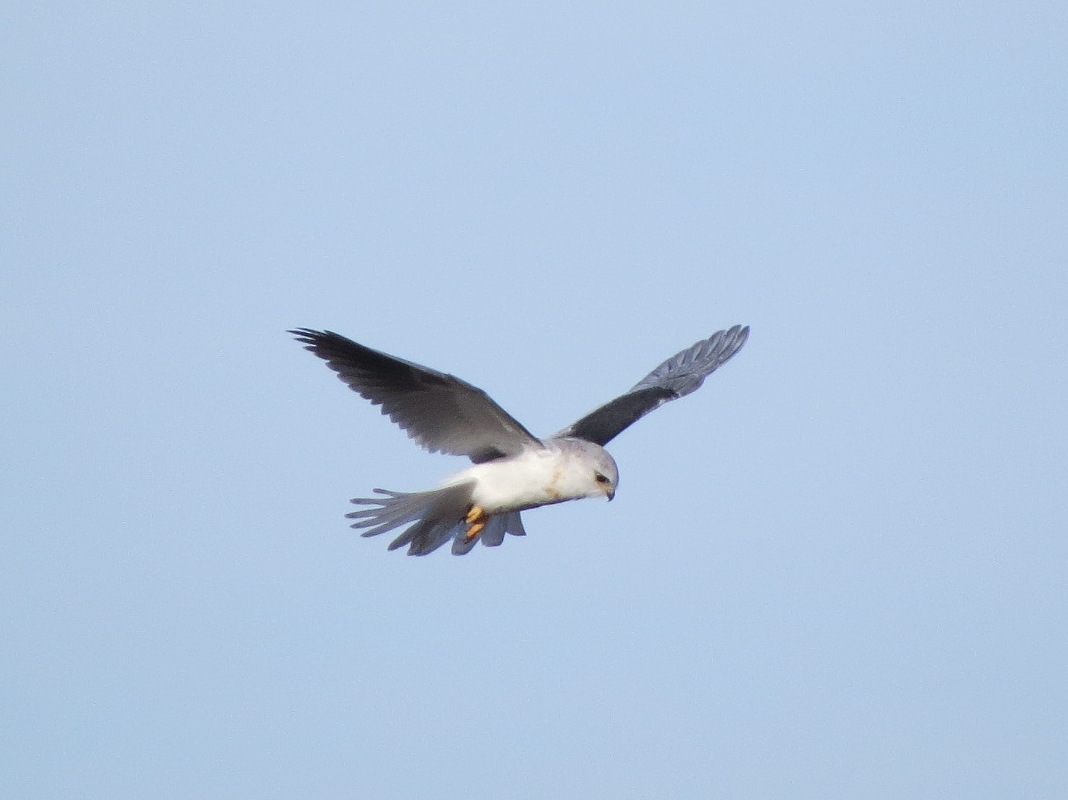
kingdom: Animalia
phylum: Chordata
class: Aves
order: Accipitriformes
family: Accipitridae
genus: Elanus
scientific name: Elanus leucurus
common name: White-tailed kite
